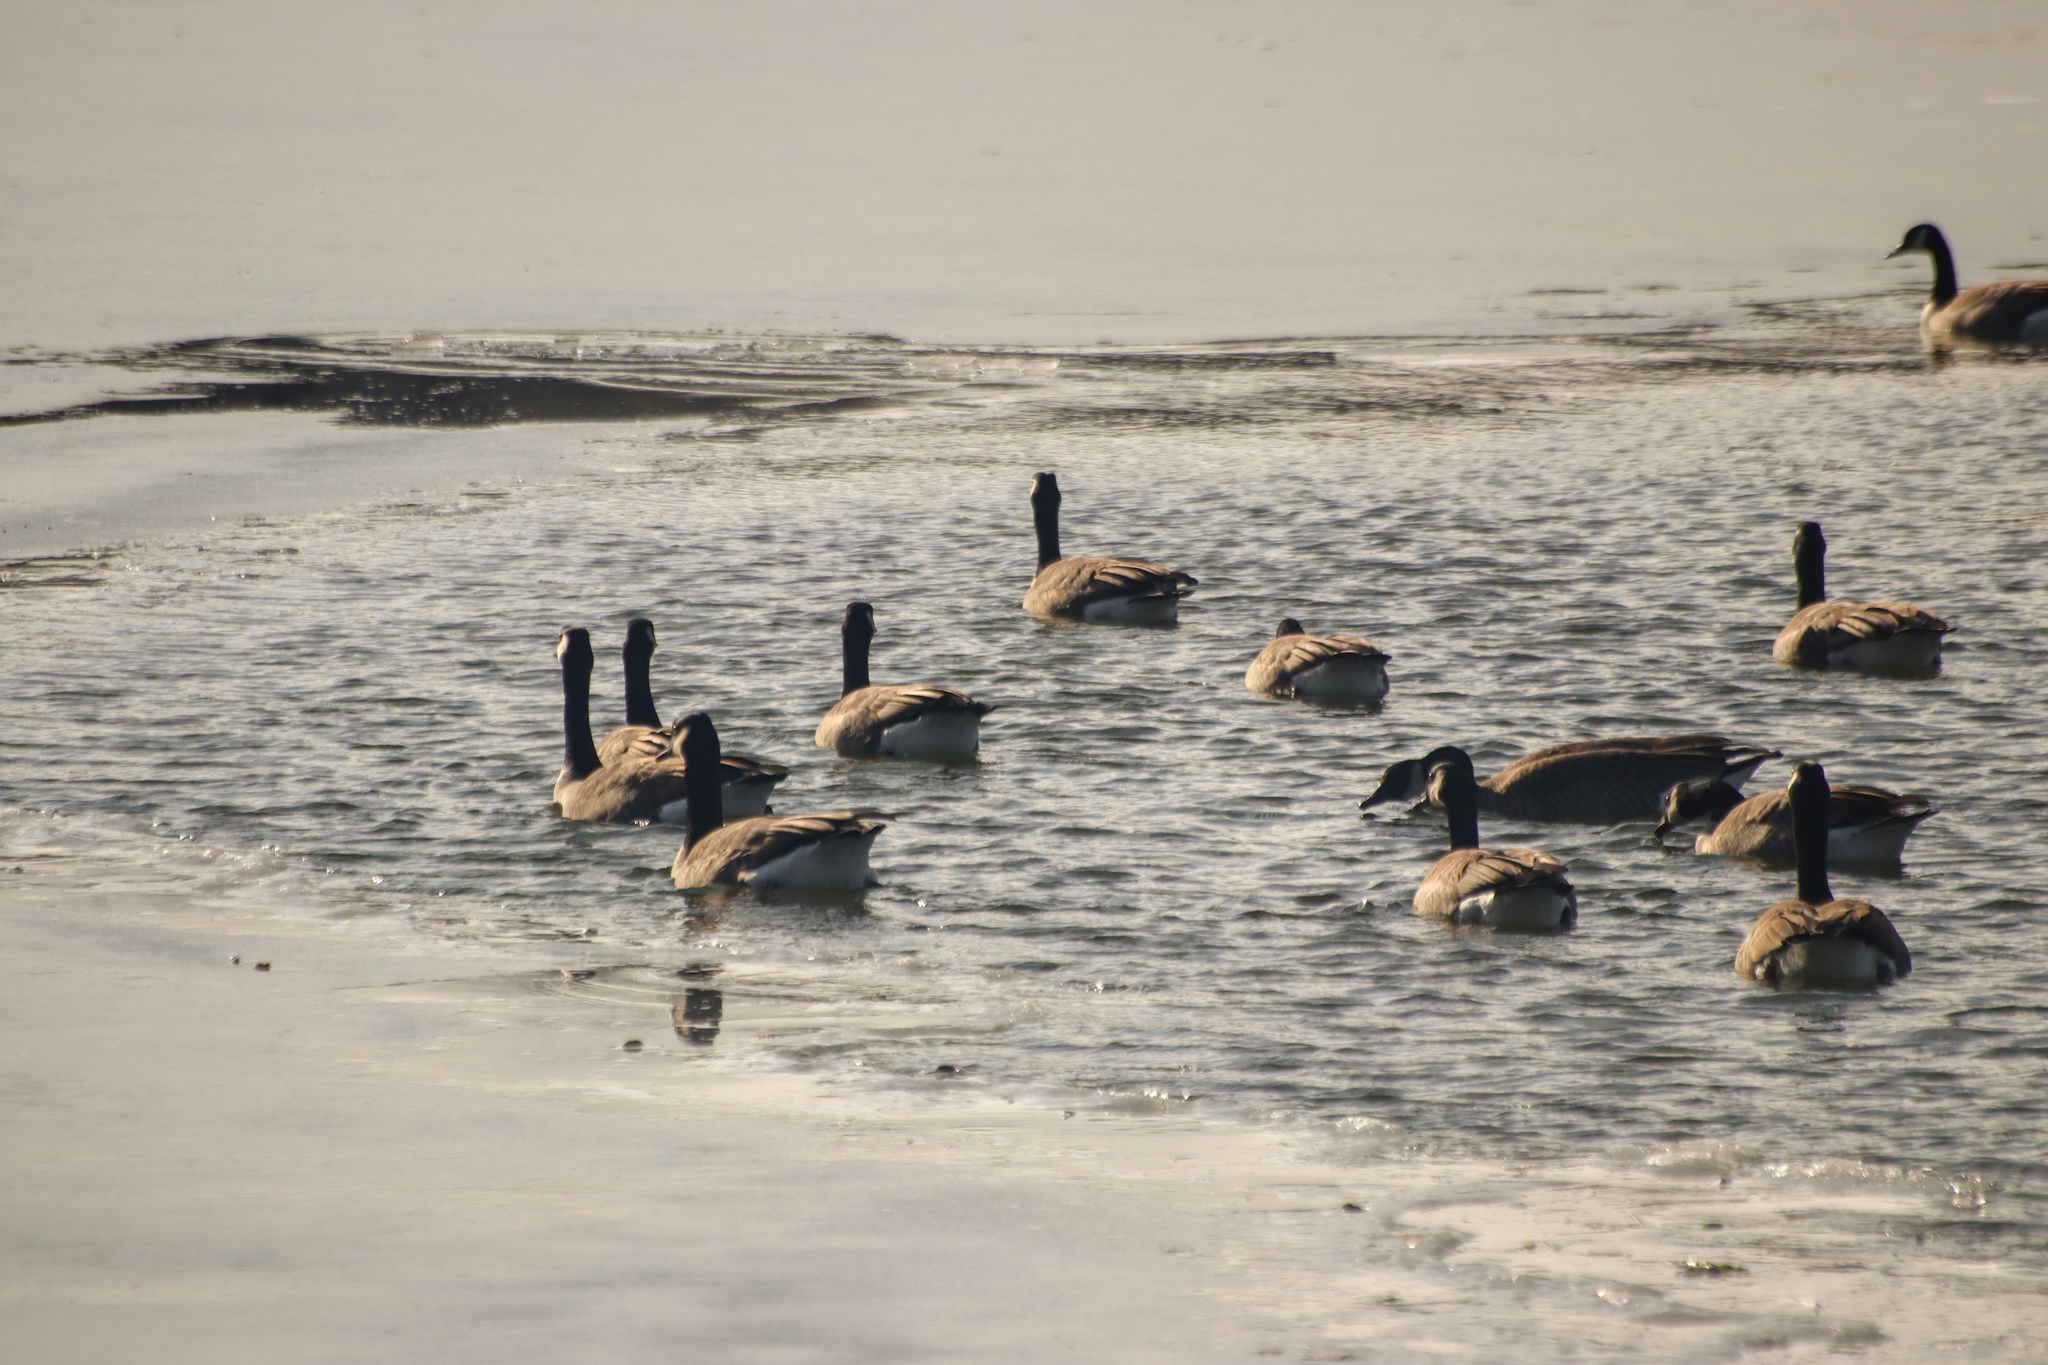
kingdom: Animalia
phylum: Chordata
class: Aves
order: Anseriformes
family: Anatidae
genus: Branta
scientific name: Branta canadensis
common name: Canada goose
